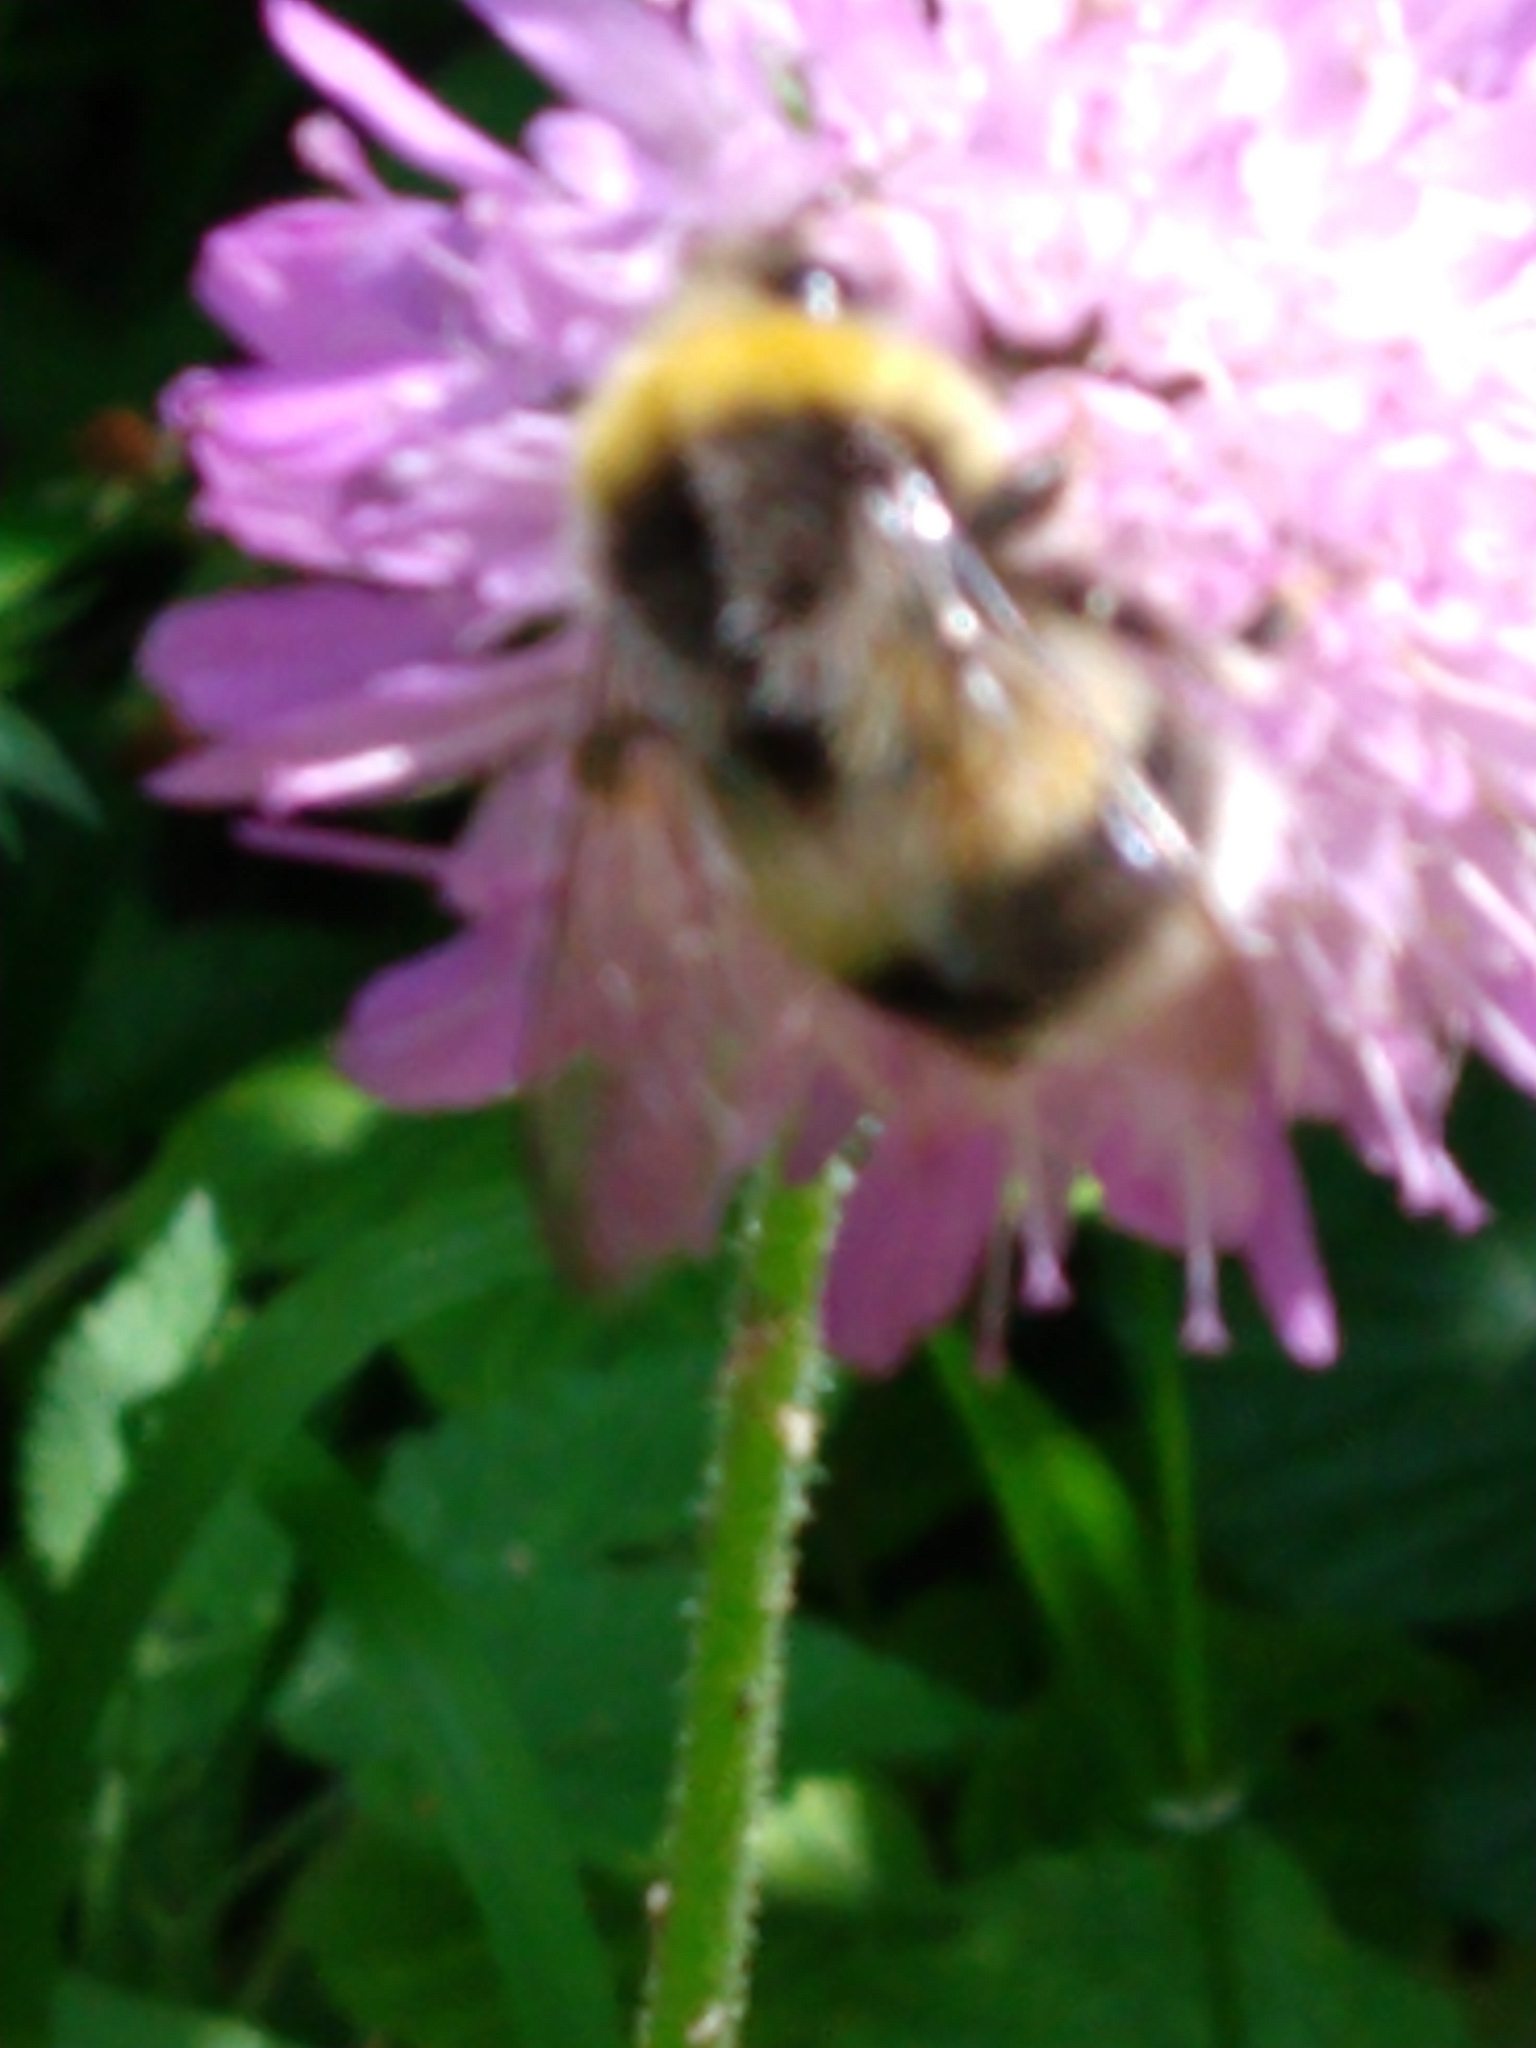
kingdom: Animalia
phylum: Arthropoda
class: Insecta
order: Hymenoptera
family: Apidae
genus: Bombus
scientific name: Bombus
